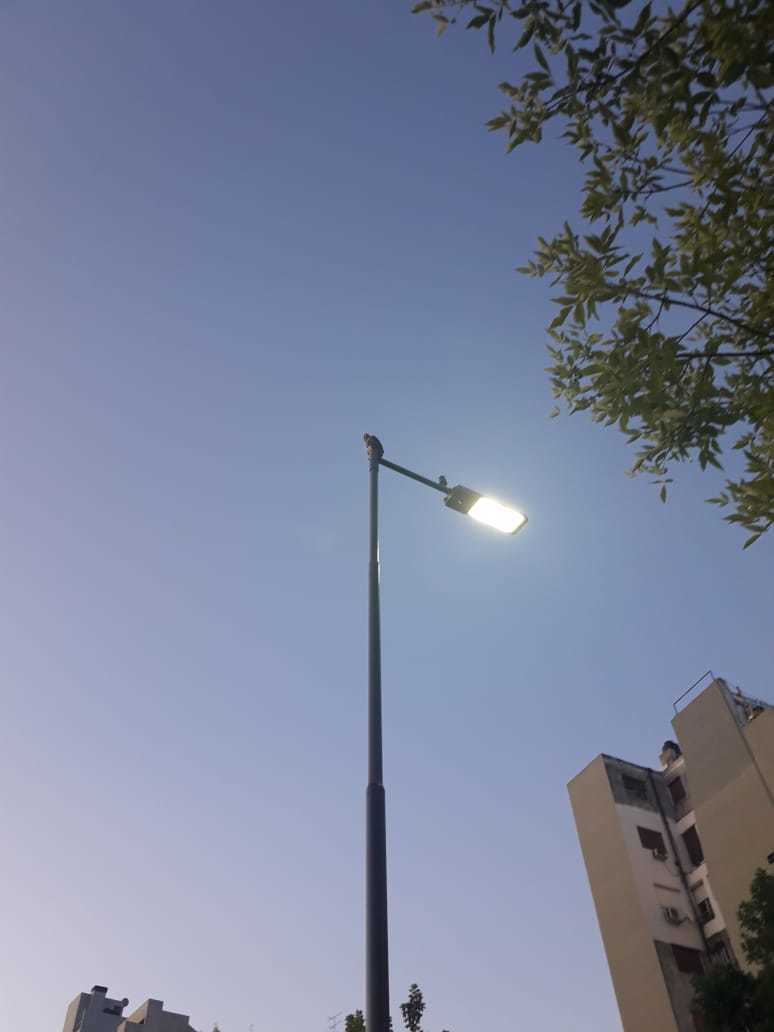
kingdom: Animalia
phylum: Chordata
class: Aves
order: Accipitriformes
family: Accipitridae
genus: Parabuteo
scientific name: Parabuteo unicinctus
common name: Harris's hawk
